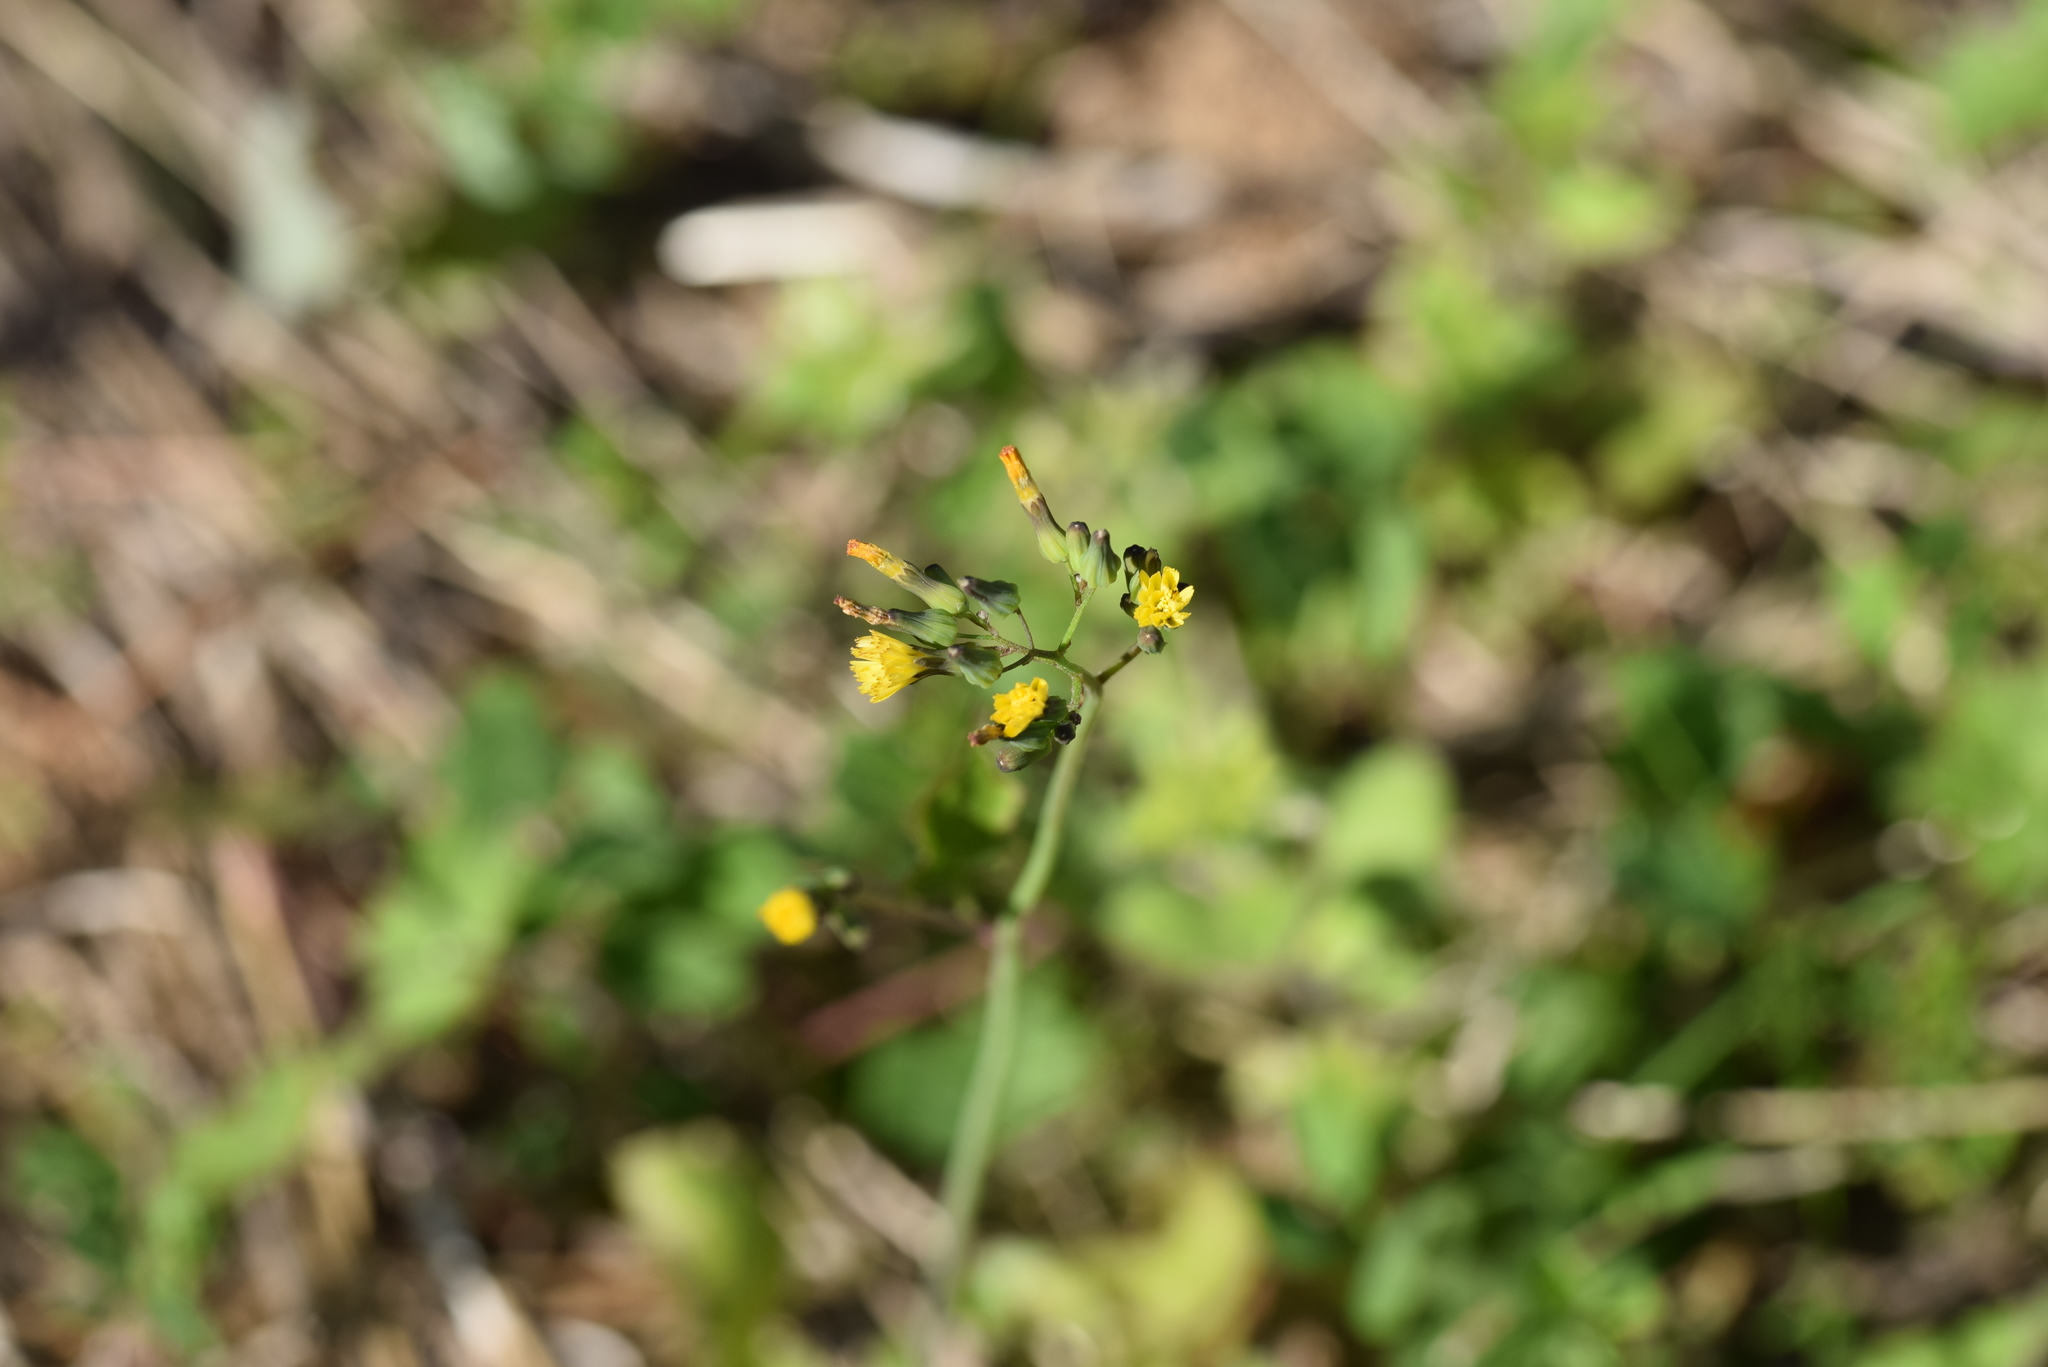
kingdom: Plantae
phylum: Tracheophyta
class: Magnoliopsida
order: Asterales
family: Asteraceae
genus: Youngia
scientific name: Youngia japonica
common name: Oriental false hawksbeard
